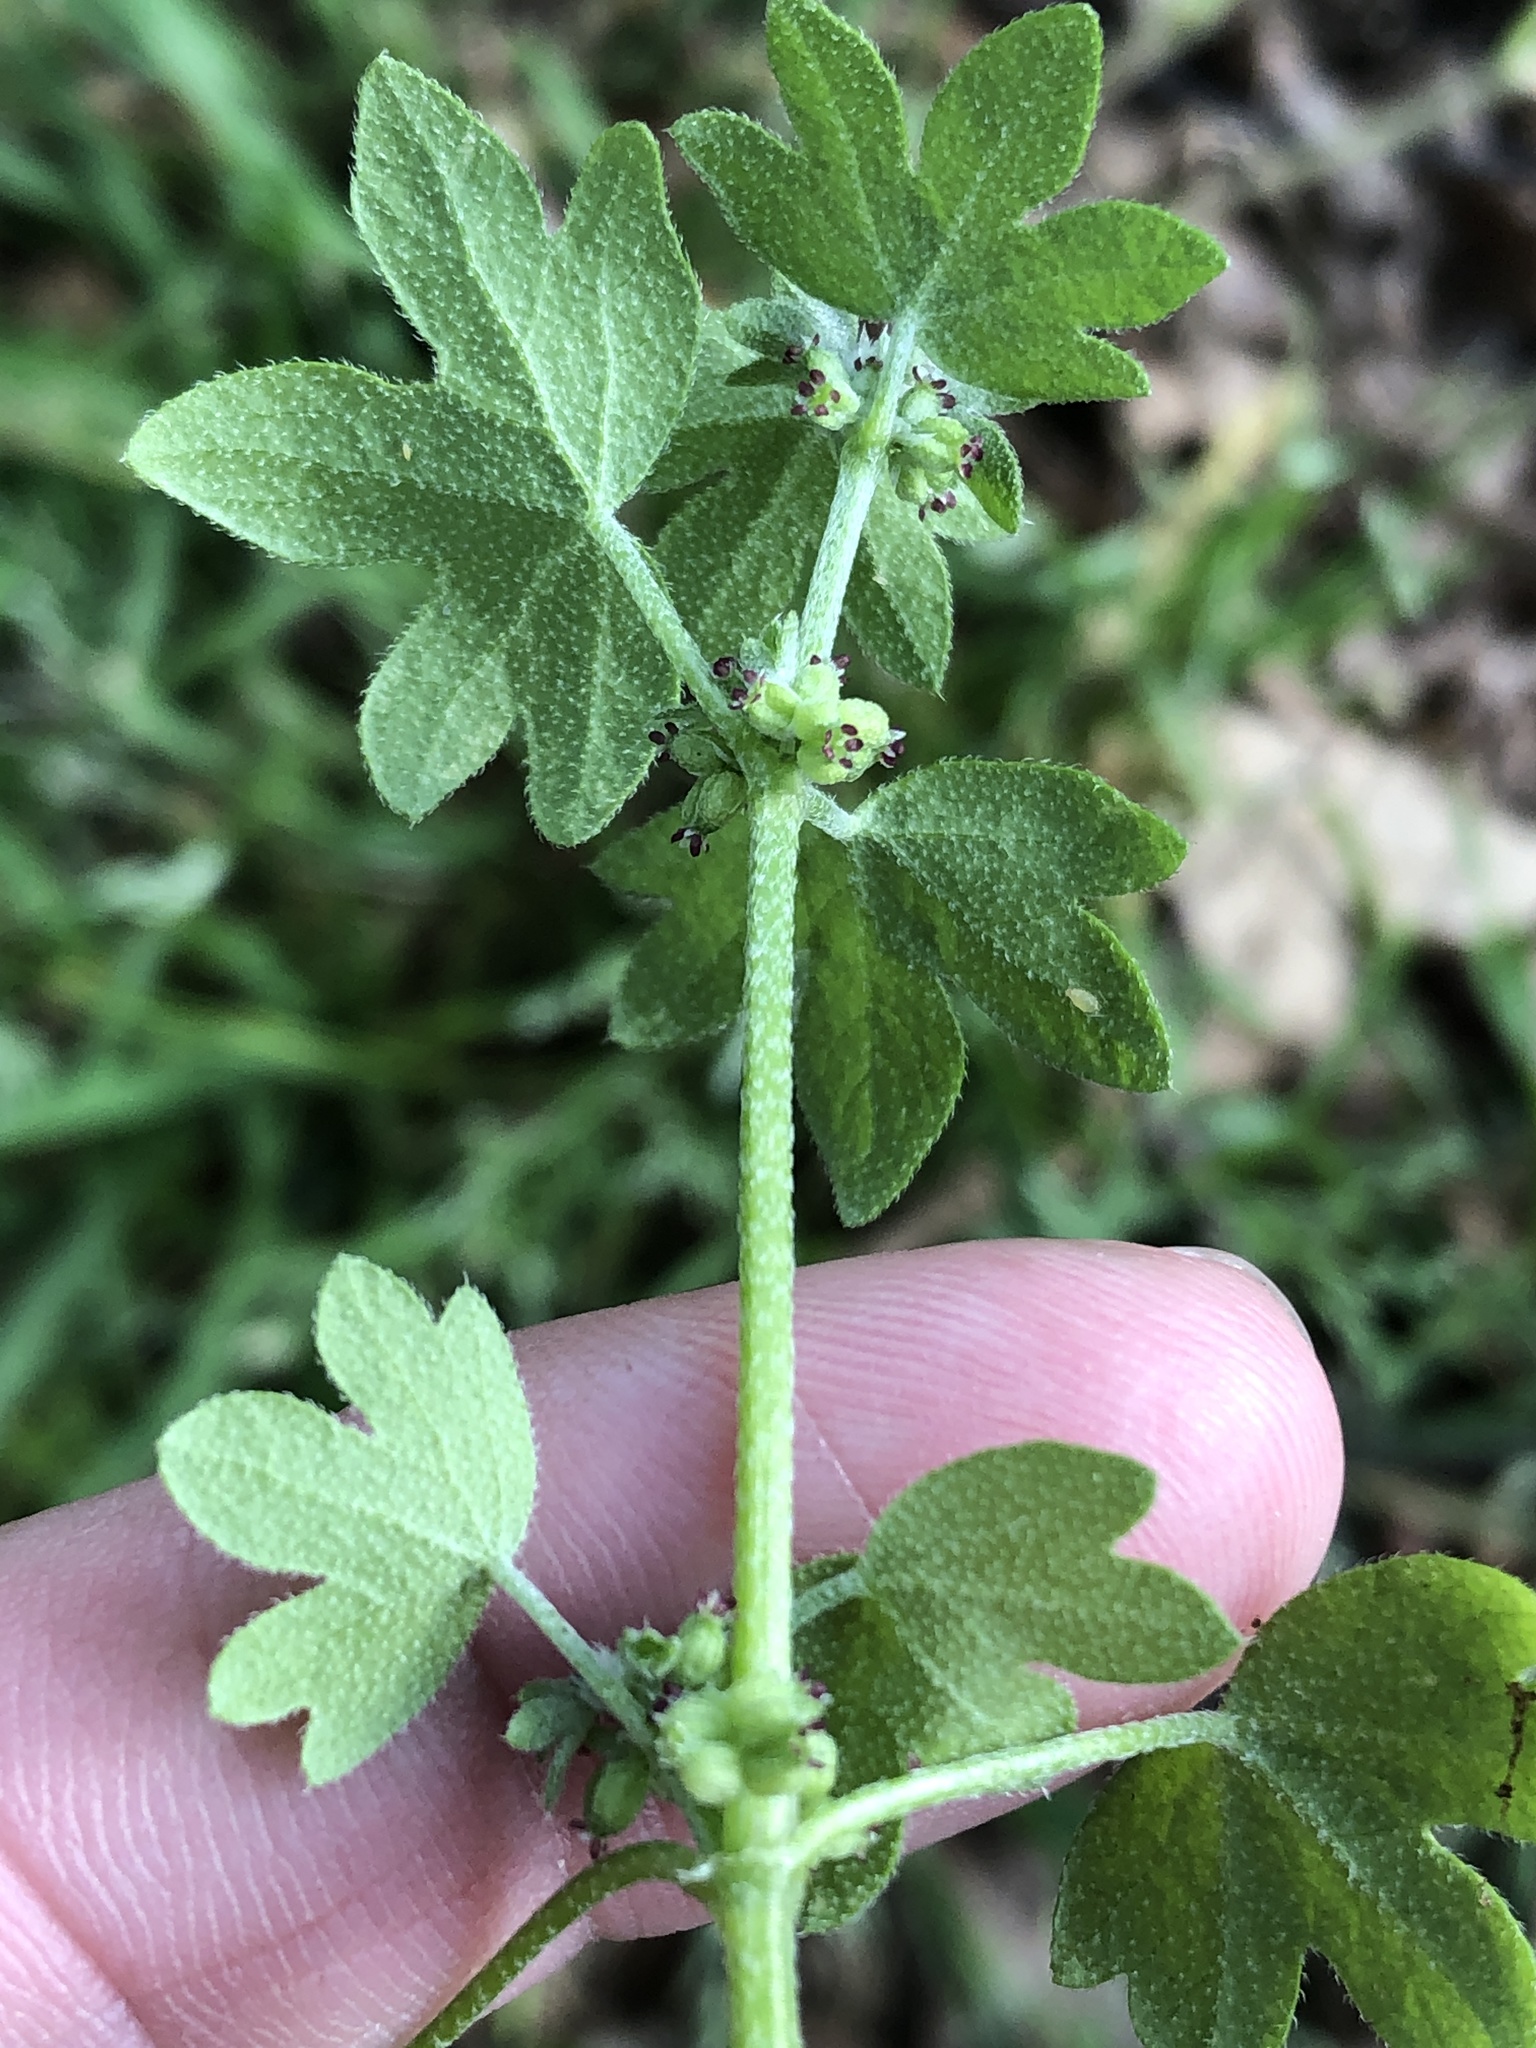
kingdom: Plantae
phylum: Tracheophyta
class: Magnoliopsida
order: Apiales
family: Apiaceae
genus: Bowlesia
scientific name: Bowlesia incana
